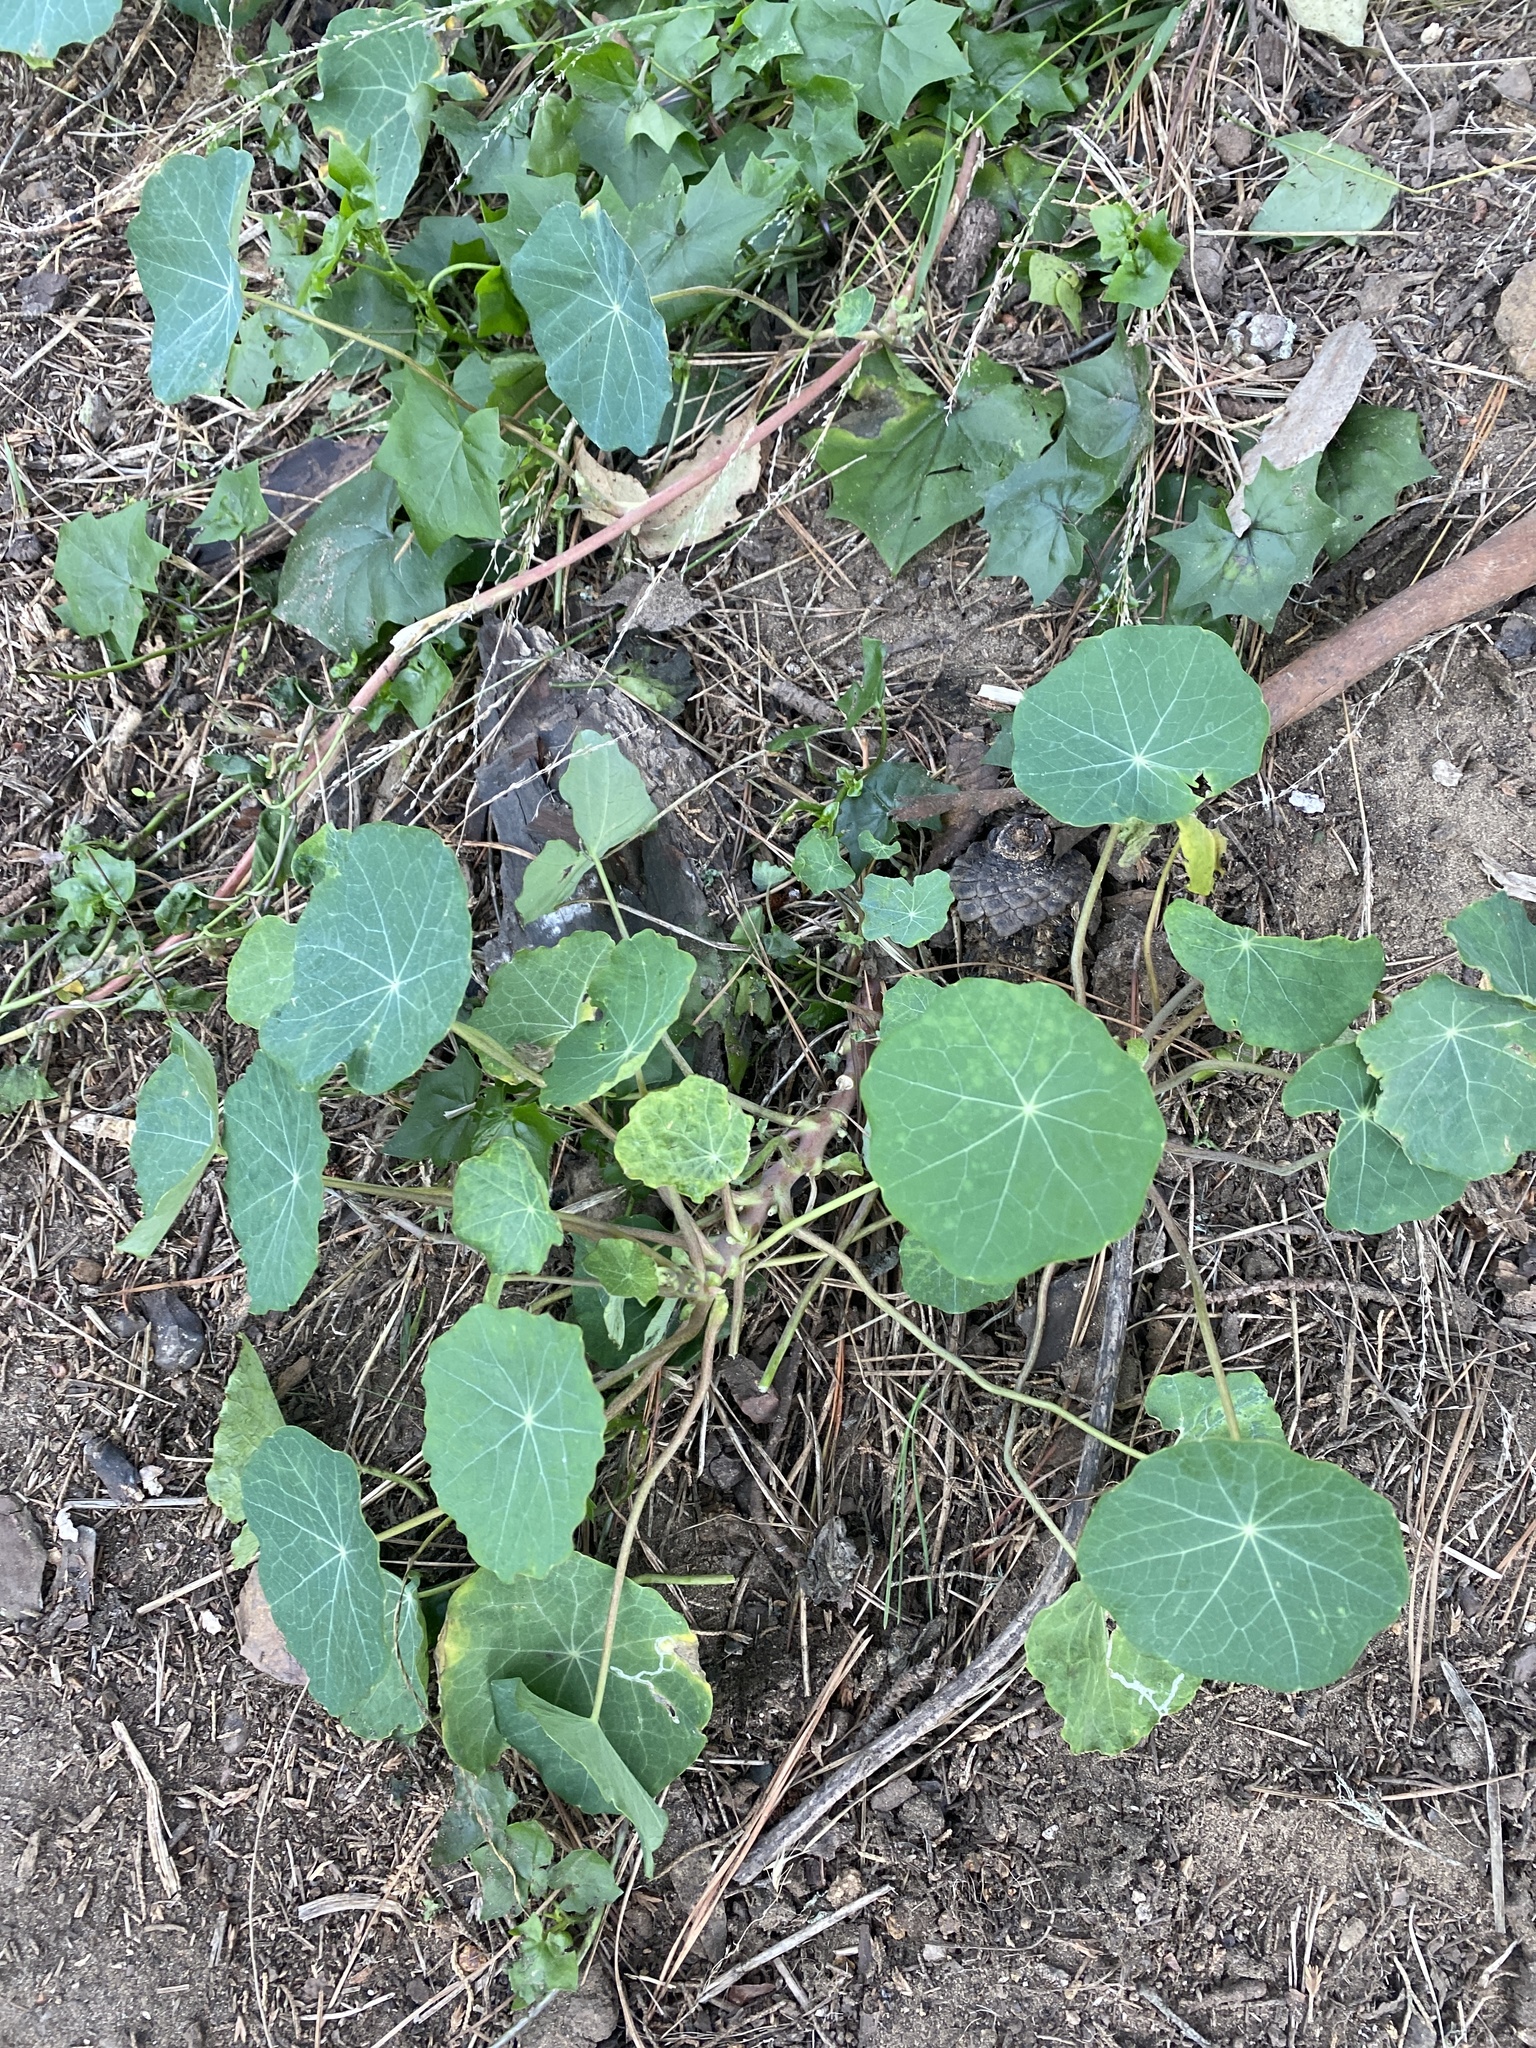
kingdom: Plantae
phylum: Tracheophyta
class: Magnoliopsida
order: Brassicales
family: Tropaeolaceae
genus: Tropaeolum
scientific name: Tropaeolum majus
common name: Nasturtium
